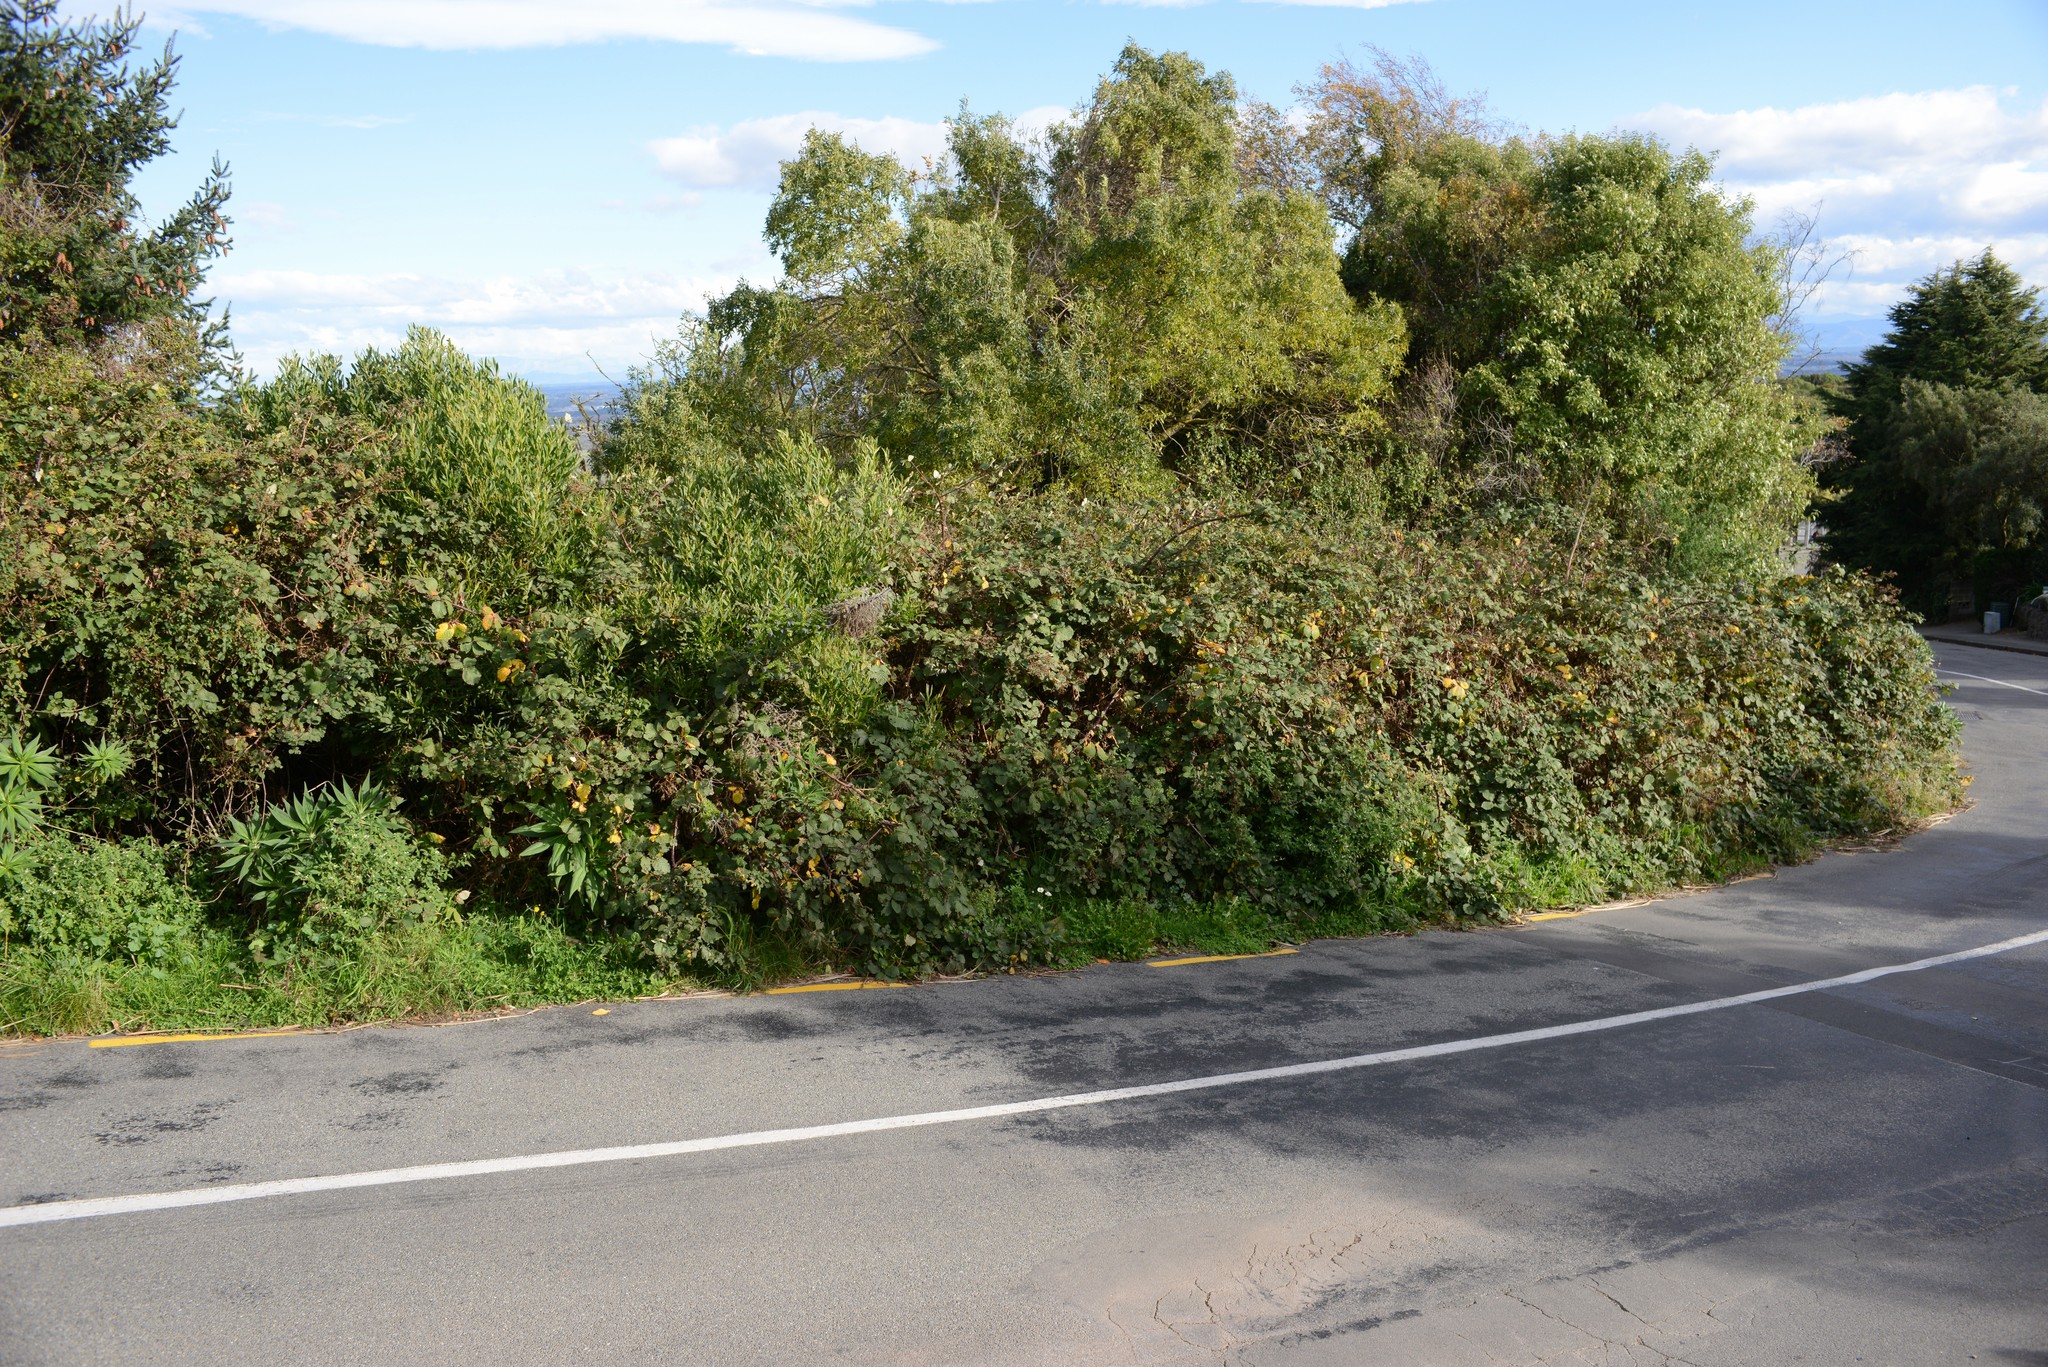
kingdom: Plantae
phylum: Tracheophyta
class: Magnoliopsida
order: Rosales
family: Rosaceae
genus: Rubus
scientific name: Rubus
